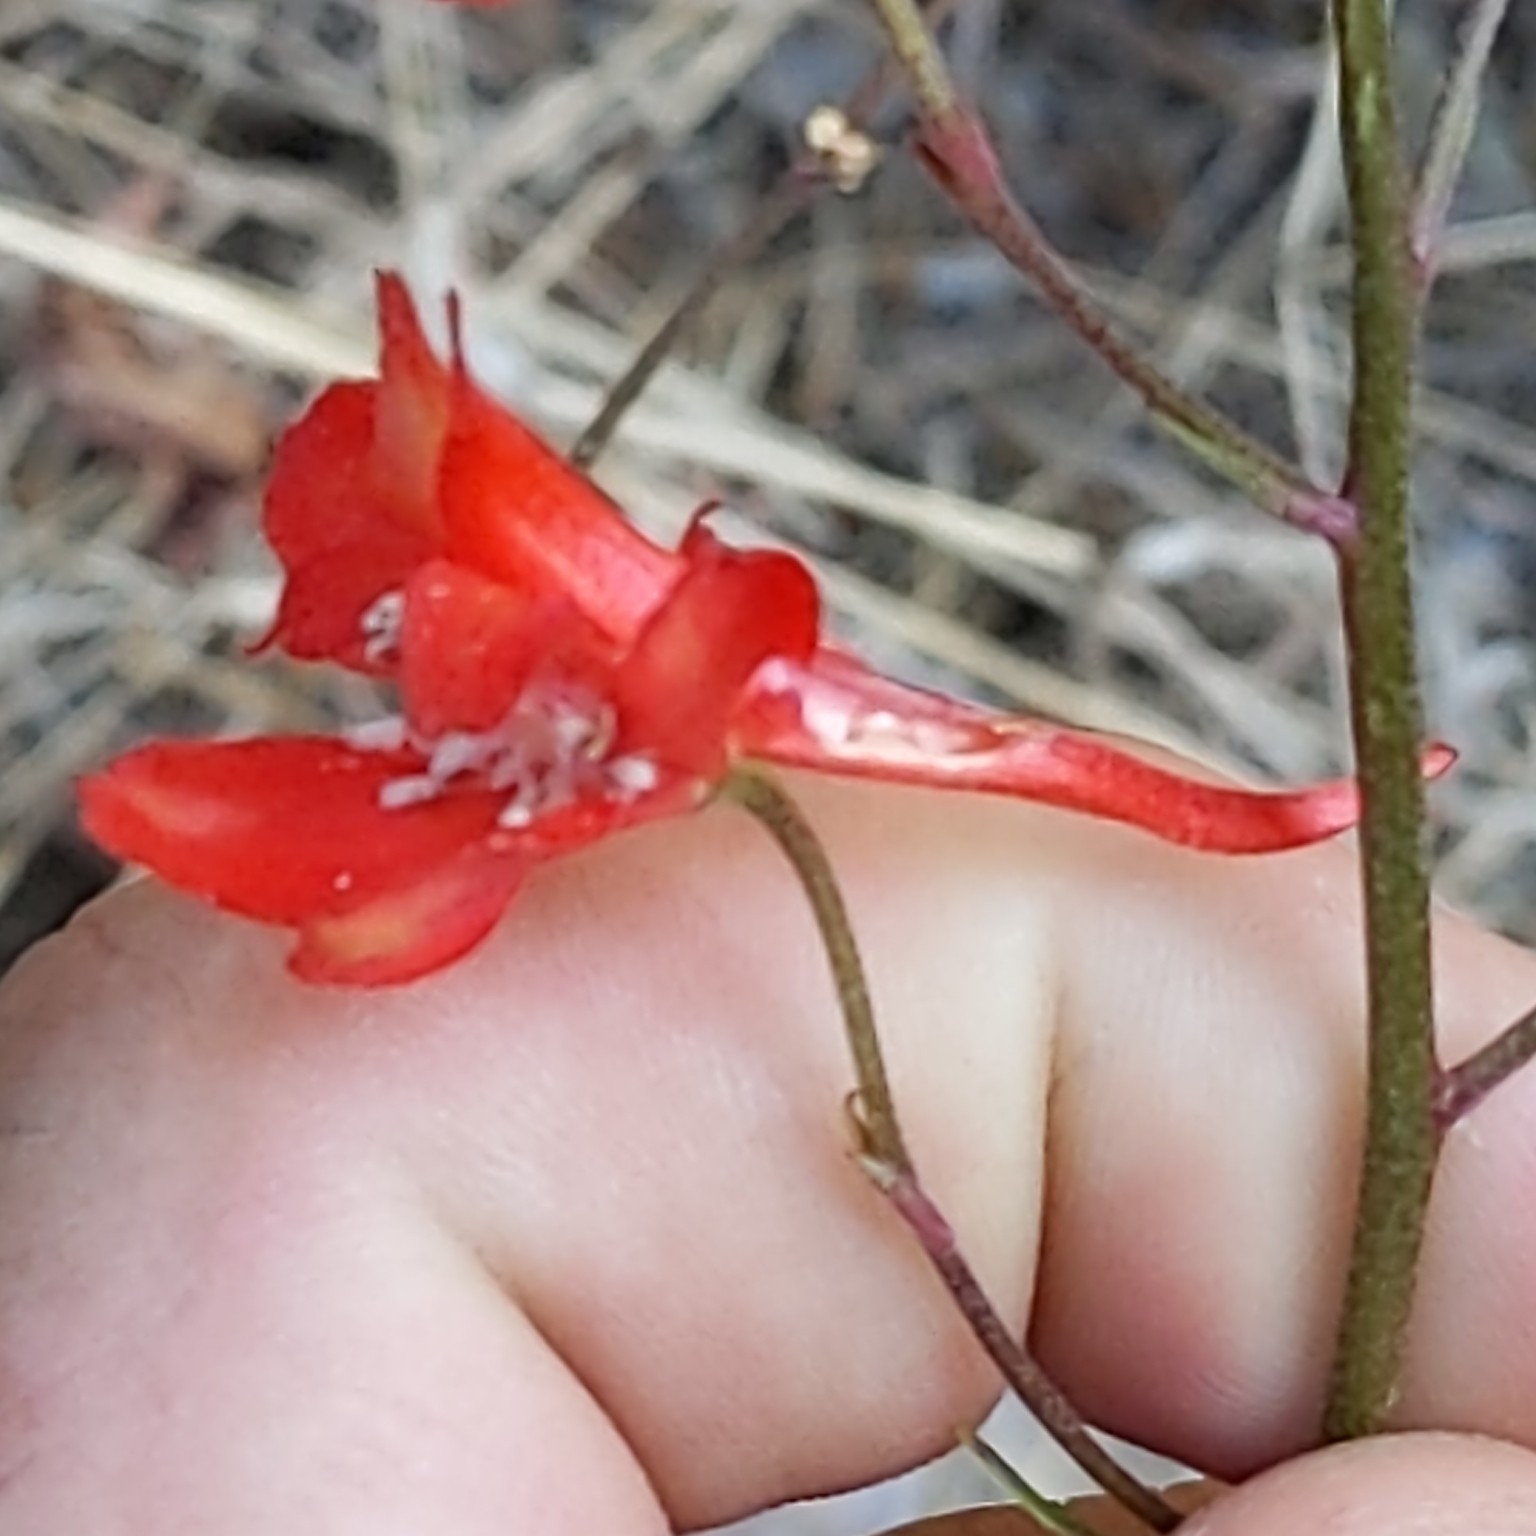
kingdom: Plantae
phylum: Tracheophyta
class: Magnoliopsida
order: Ranunculales
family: Ranunculaceae
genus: Delphinium
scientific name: Delphinium cardinale
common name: Scarlet larkspur
